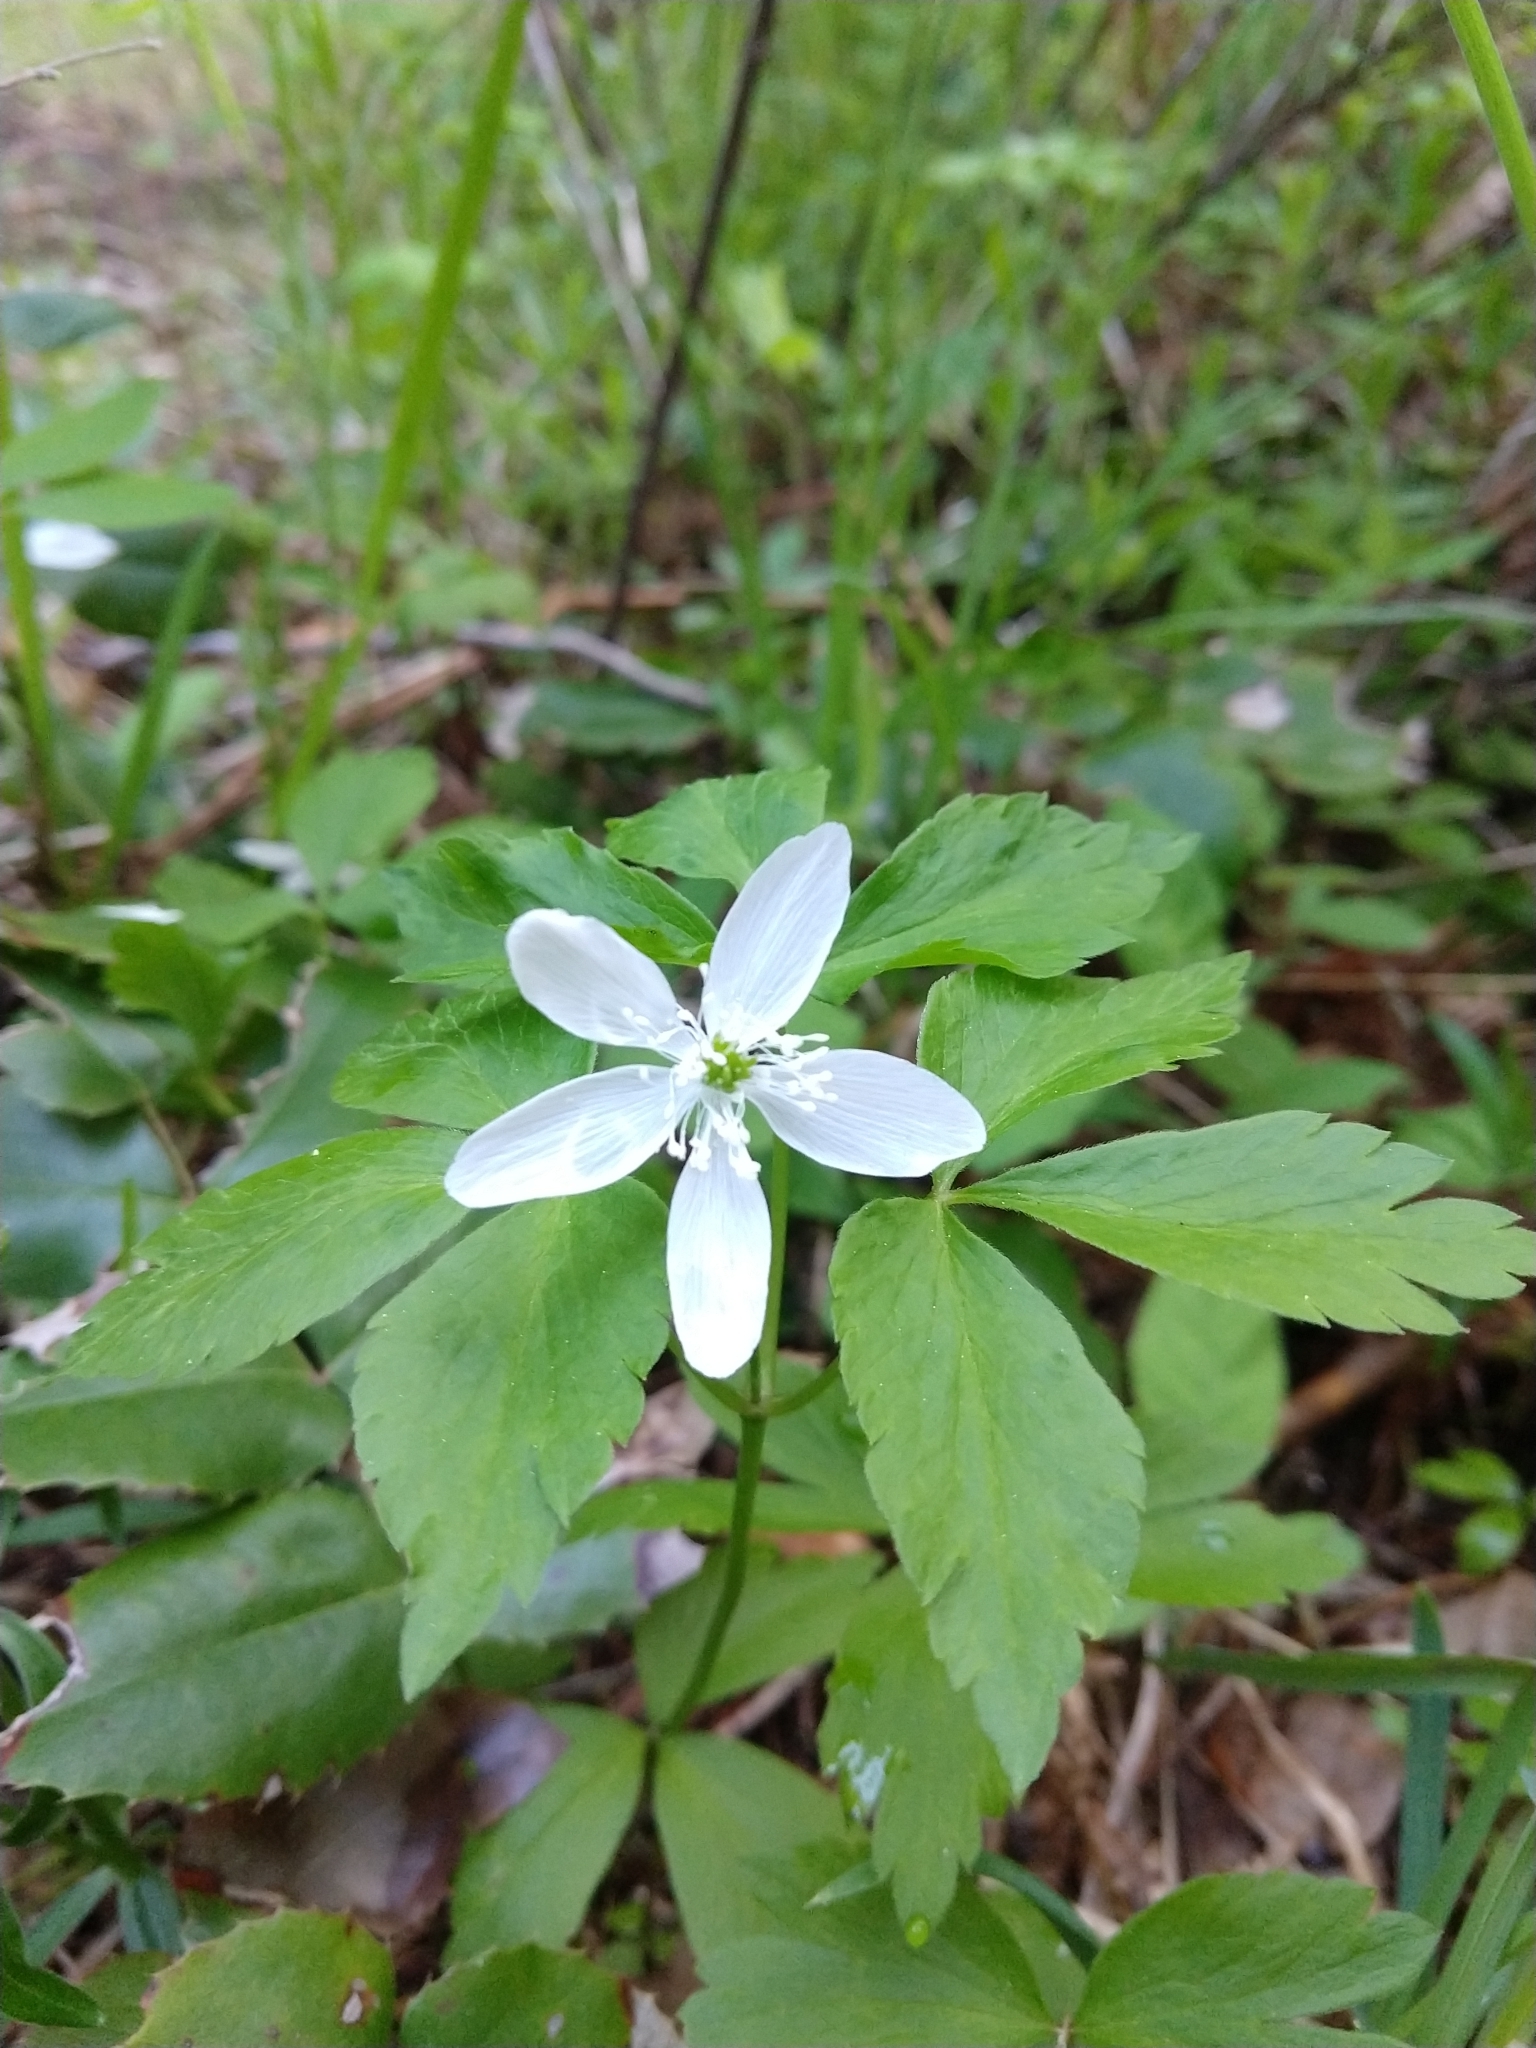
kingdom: Plantae
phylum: Tracheophyta
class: Magnoliopsida
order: Ranunculales
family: Ranunculaceae
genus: Anemone
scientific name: Anemone piperi
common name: Piper's anemone
